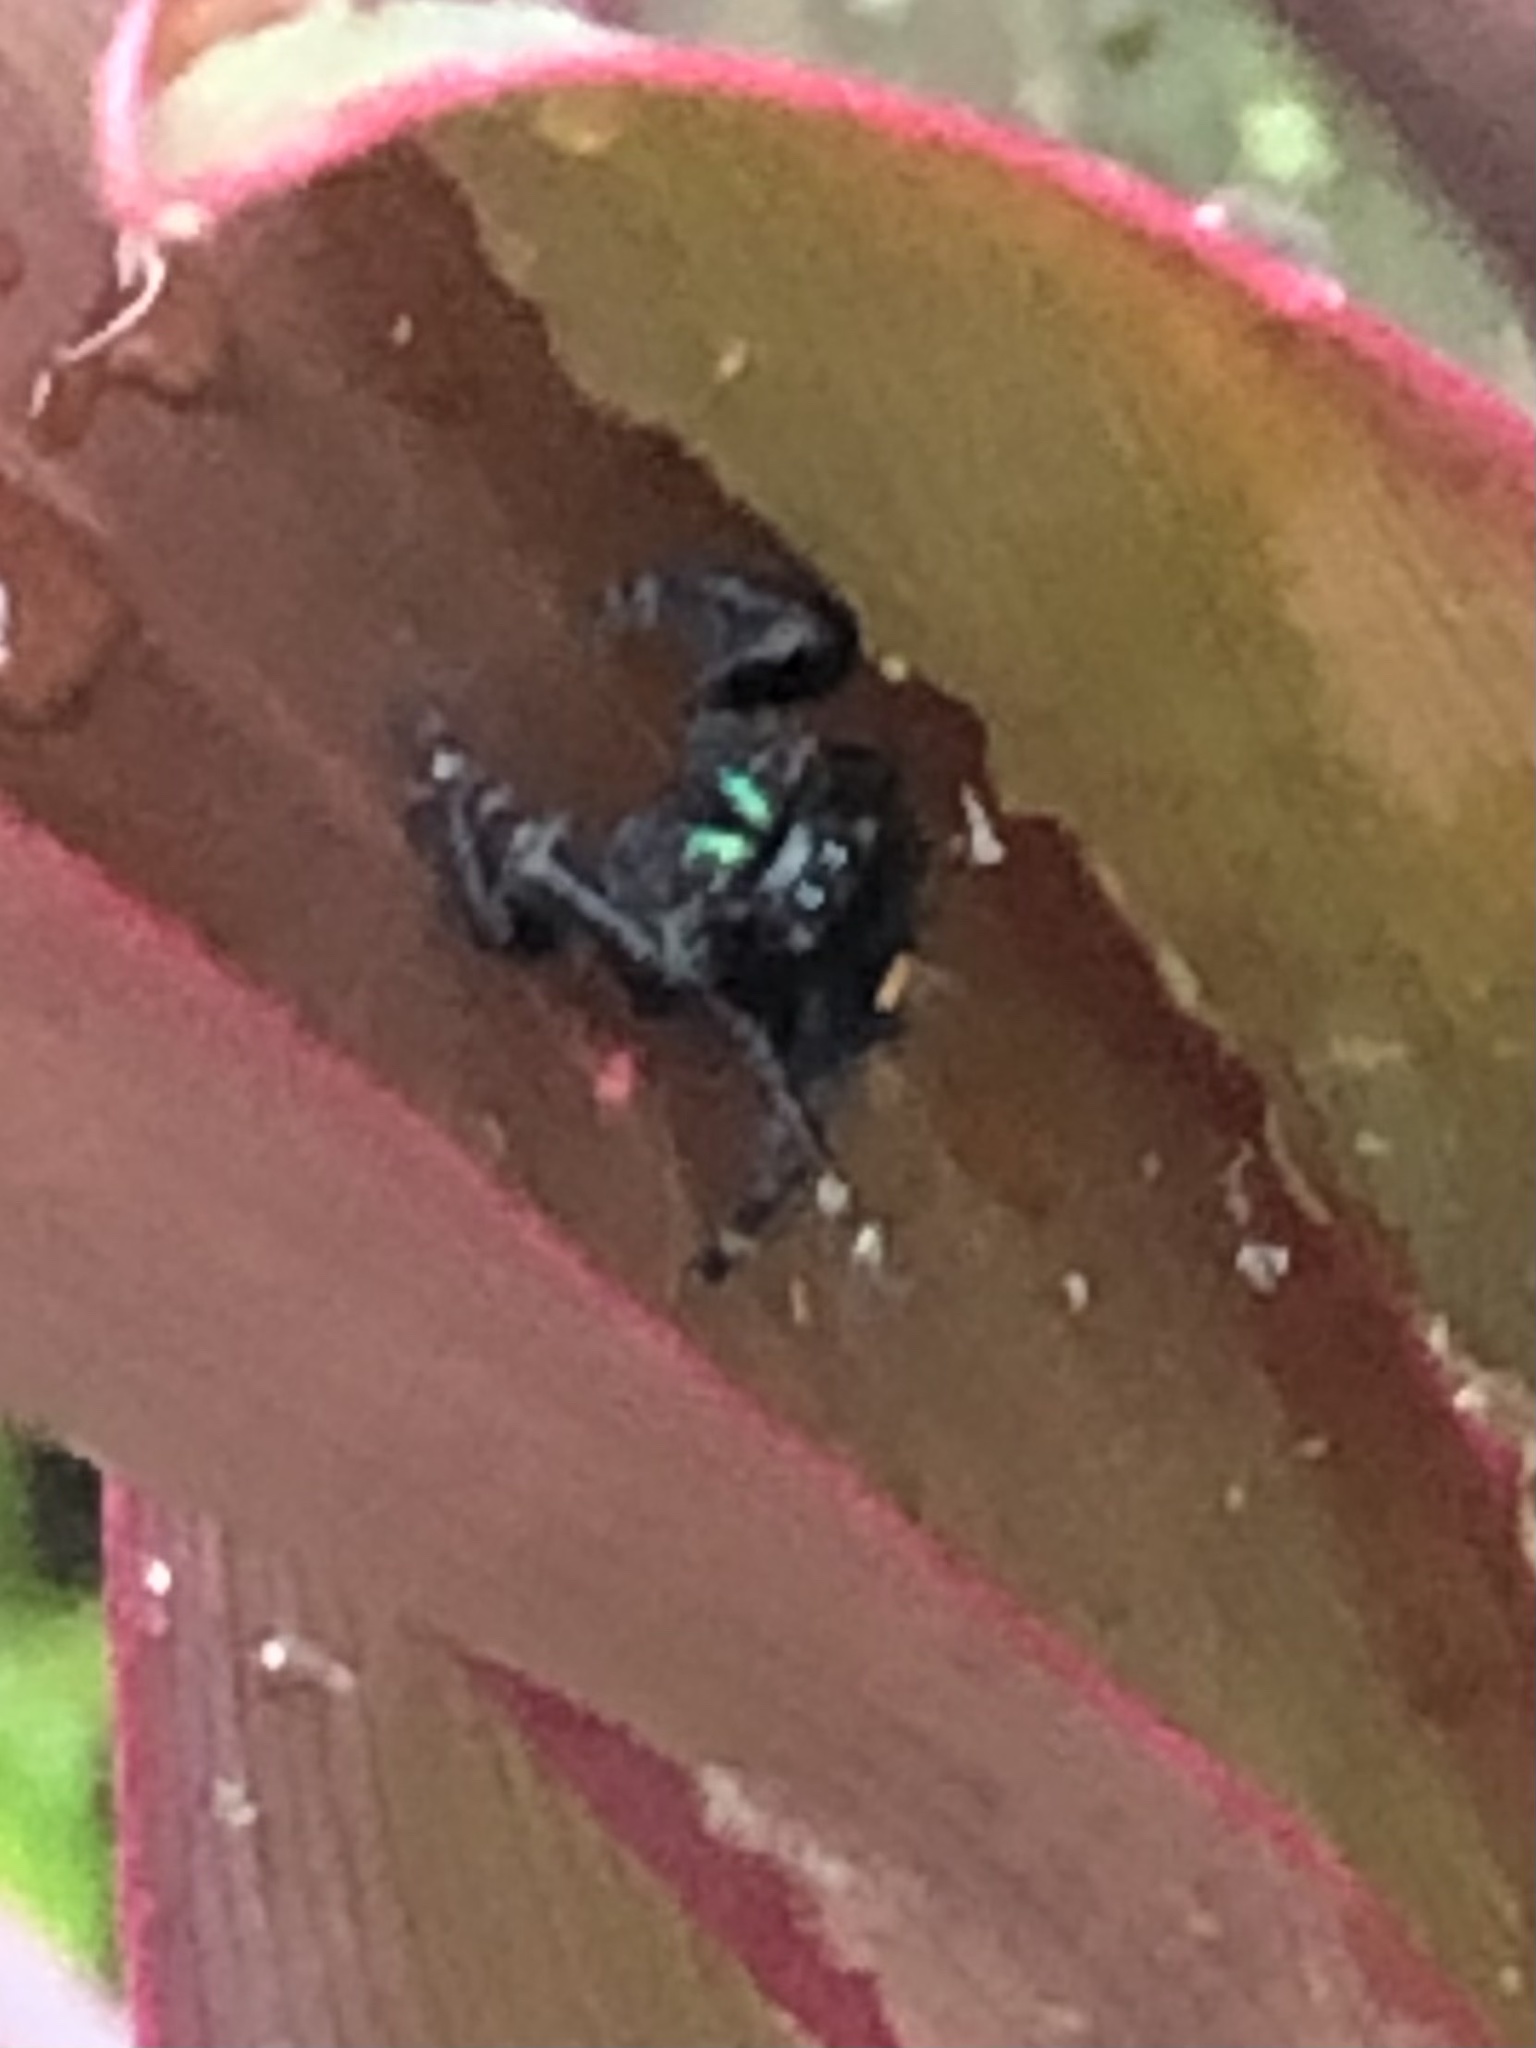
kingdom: Animalia
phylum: Arthropoda
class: Arachnida
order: Araneae
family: Salticidae
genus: Phidippus
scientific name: Phidippus audax
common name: Bold jumper
